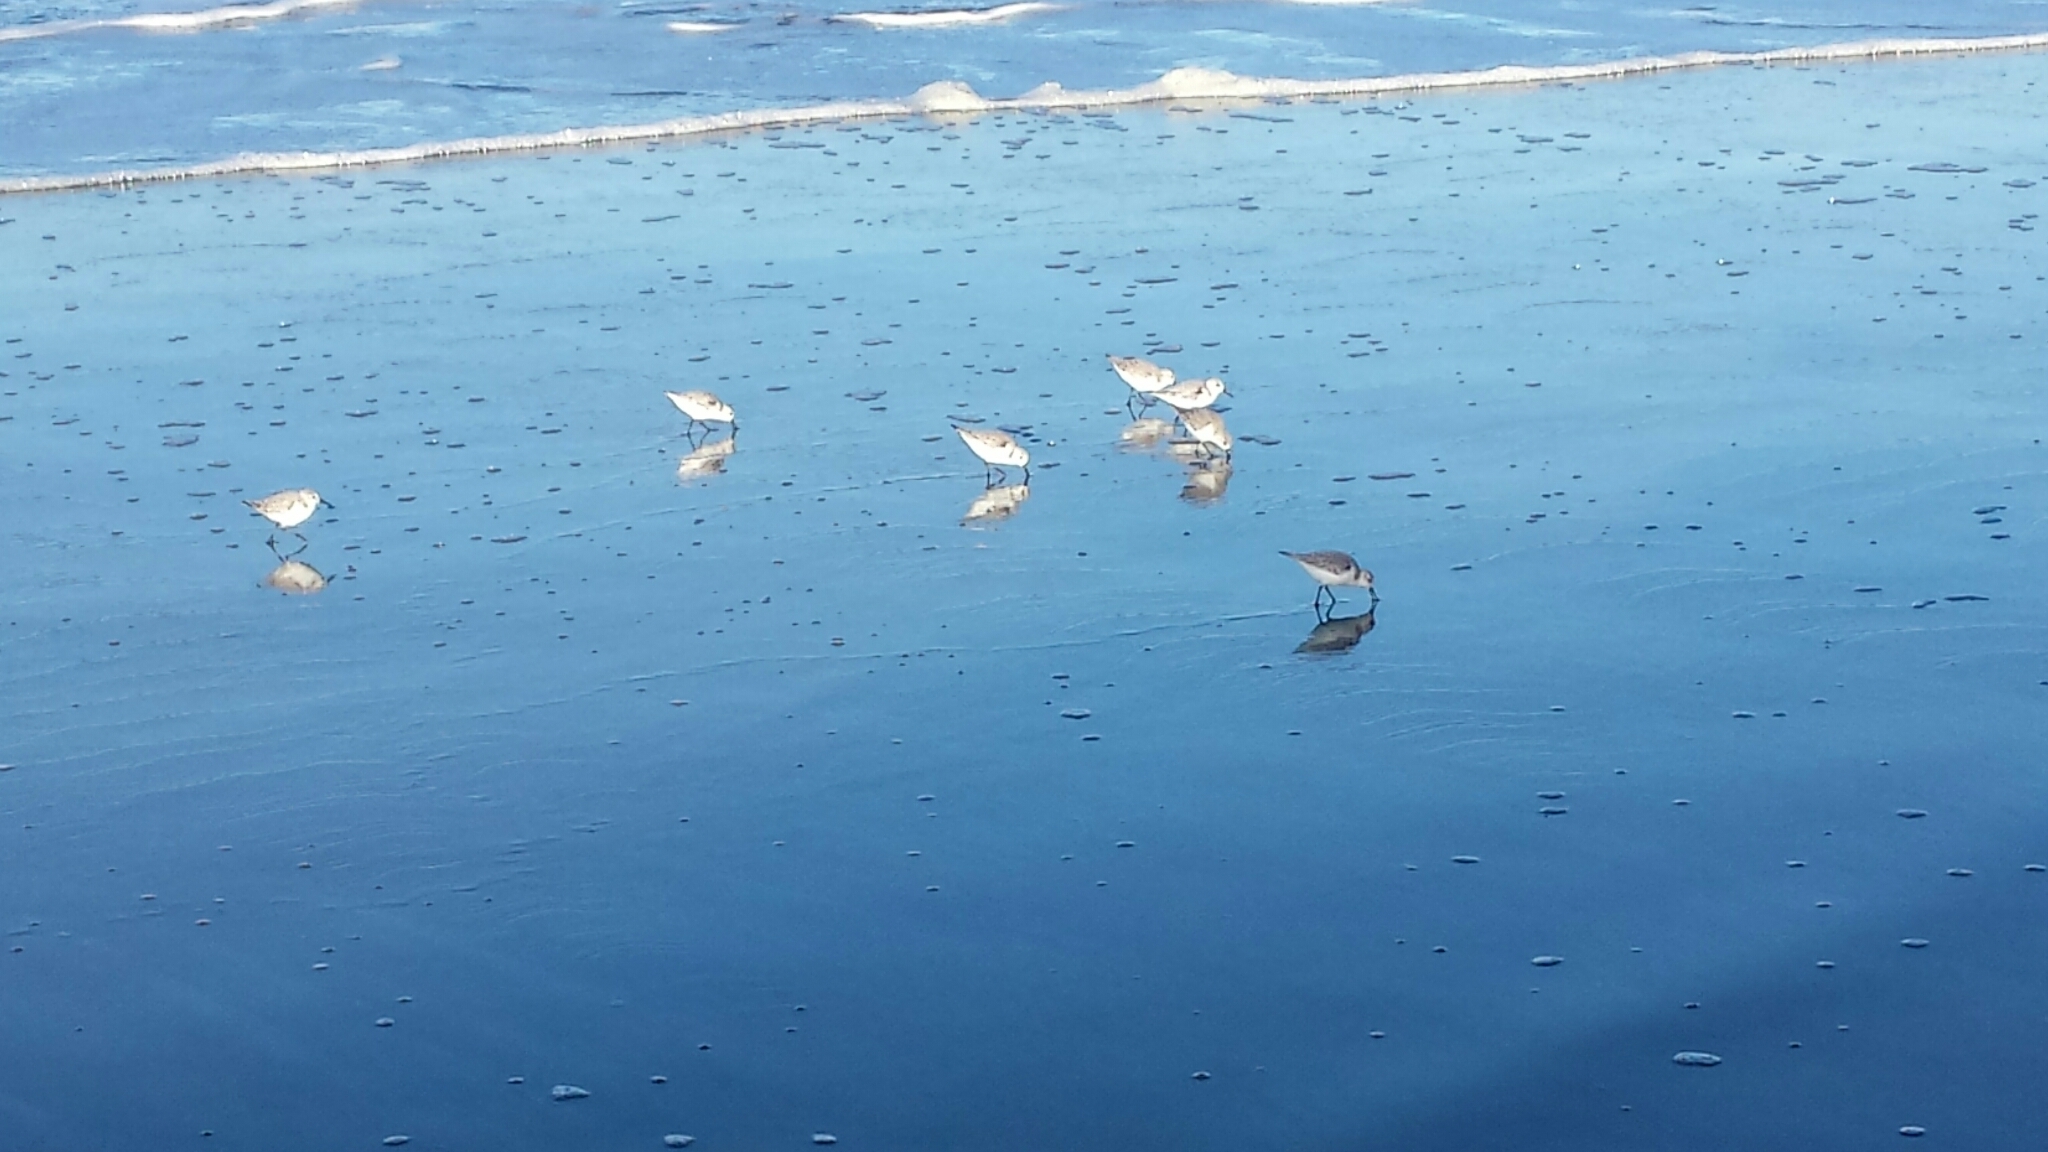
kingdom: Animalia
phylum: Chordata
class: Aves
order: Charadriiformes
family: Scolopacidae
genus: Calidris
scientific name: Calidris alba
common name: Sanderling
